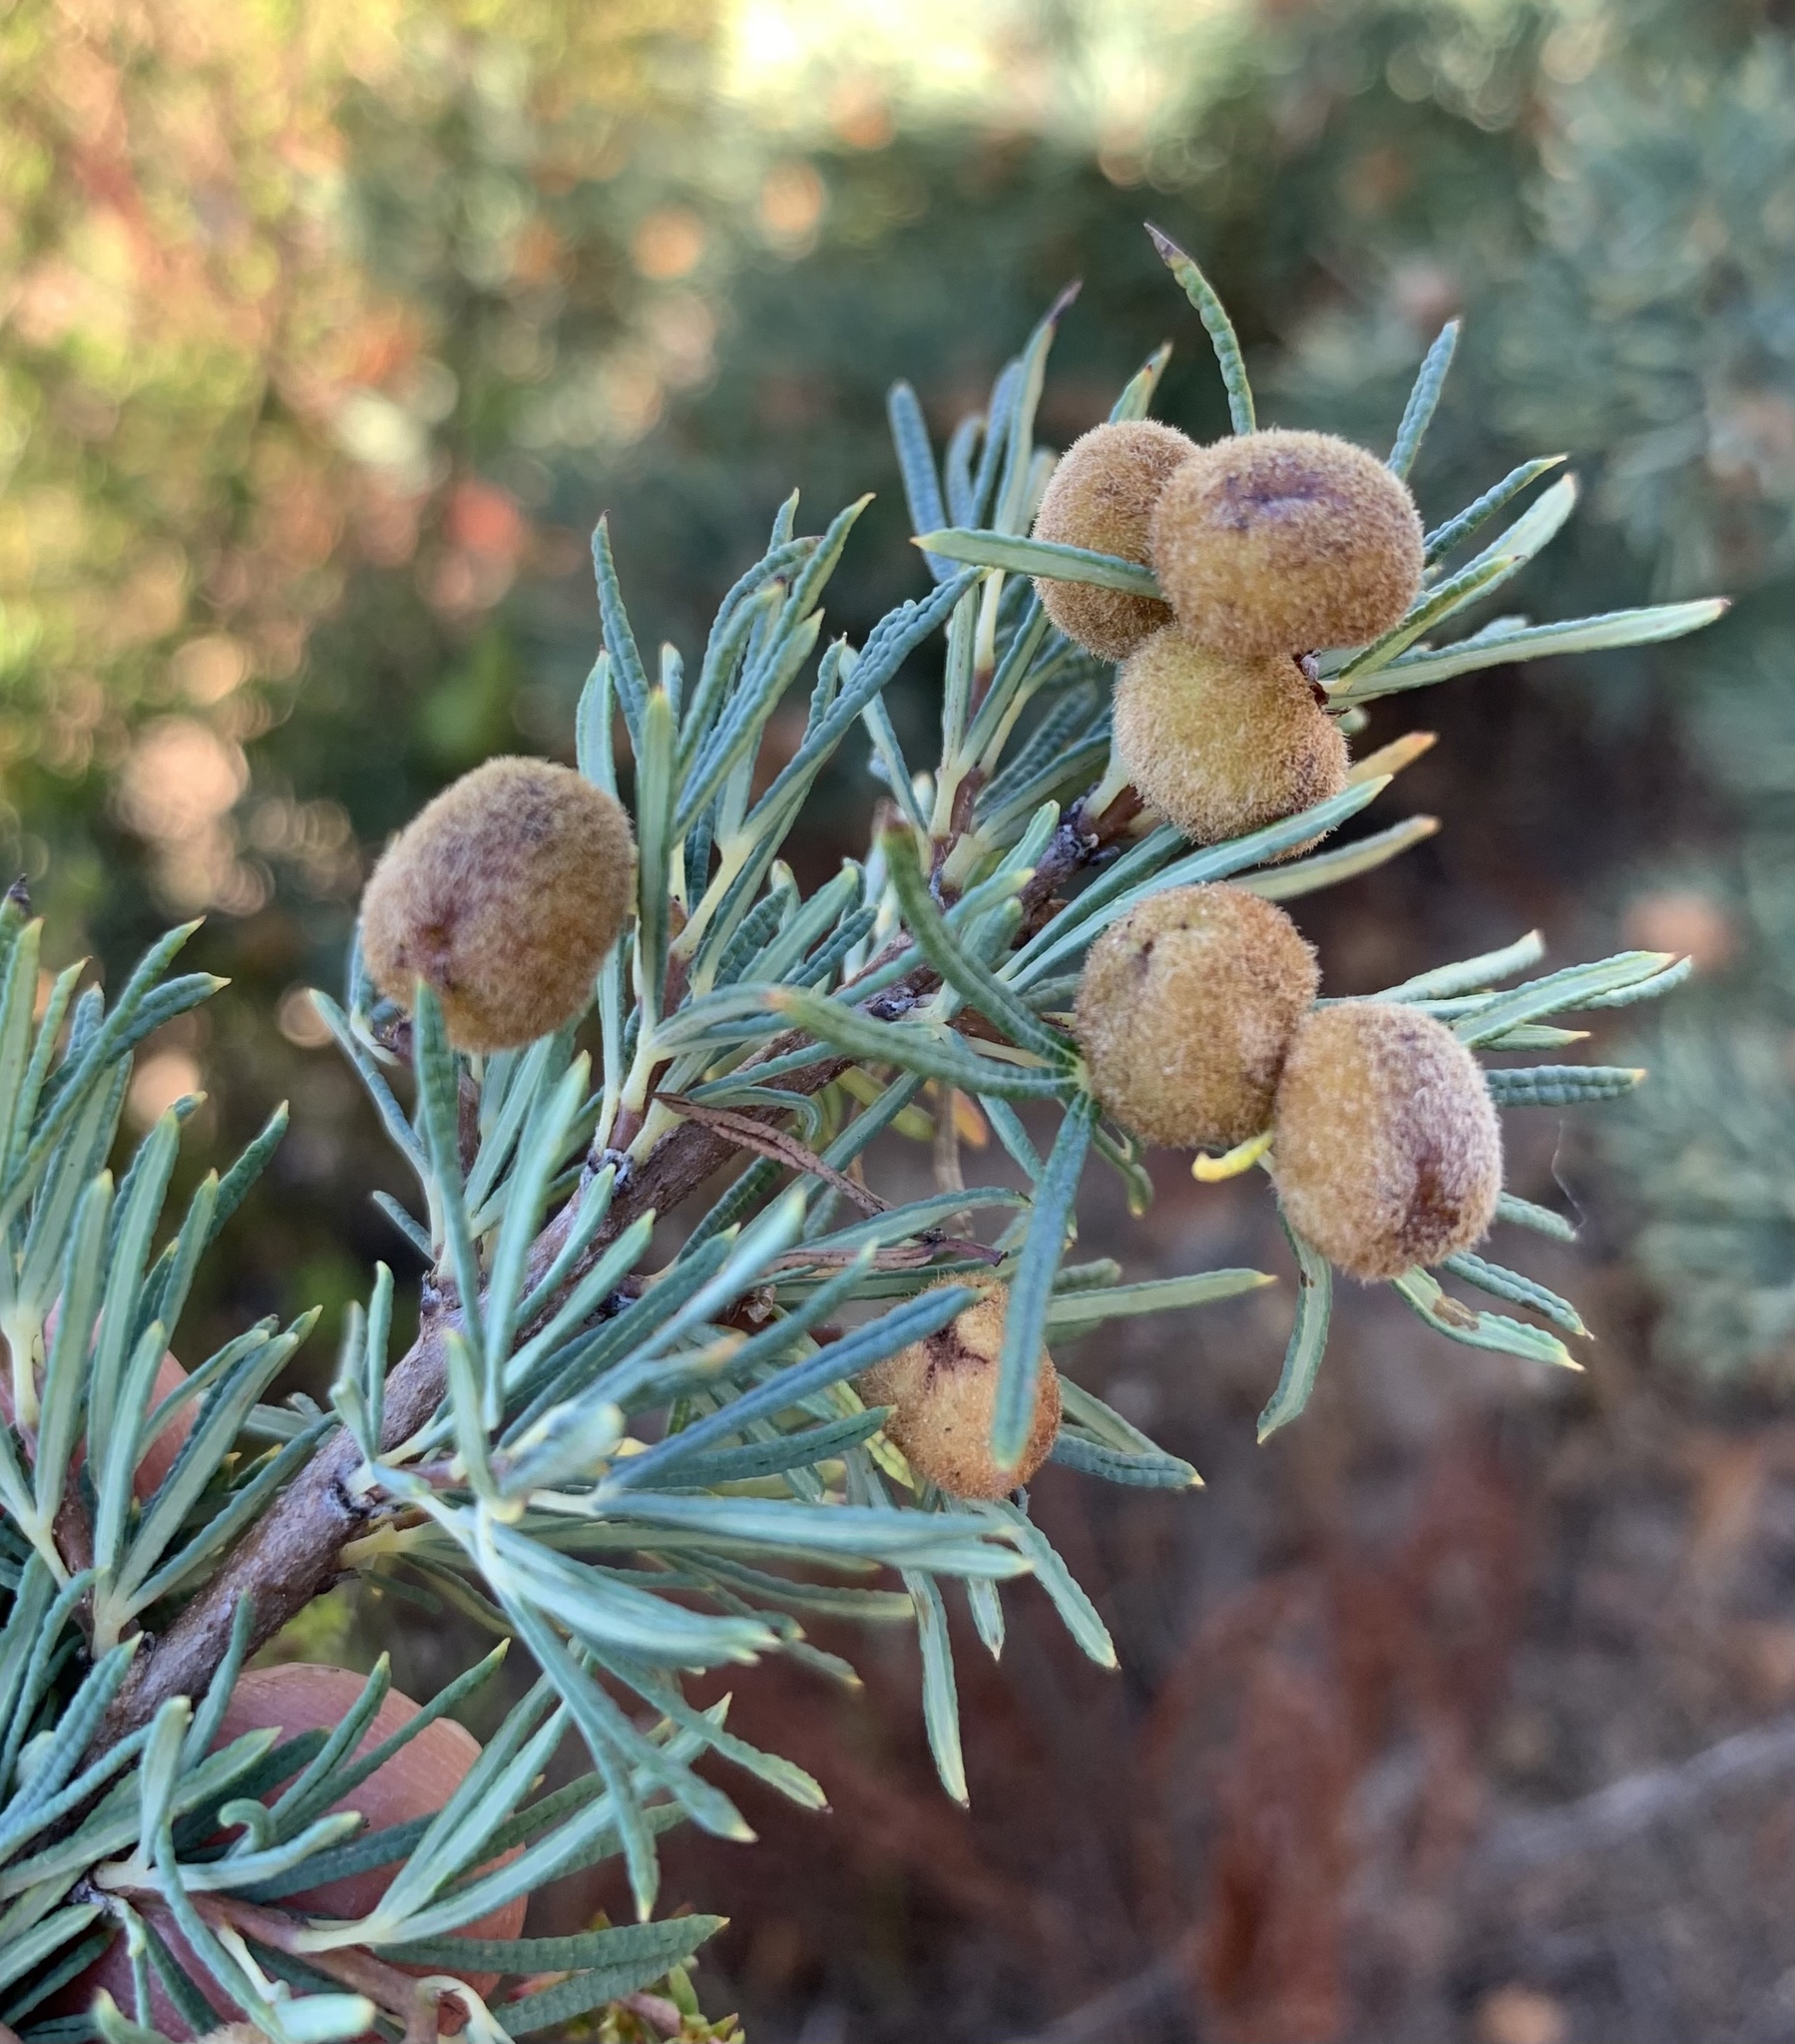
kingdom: Plantae
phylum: Tracheophyta
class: Magnoliopsida
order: Sapindales
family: Anacardiaceae
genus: Searsia
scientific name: Searsia rosmarinifolia
